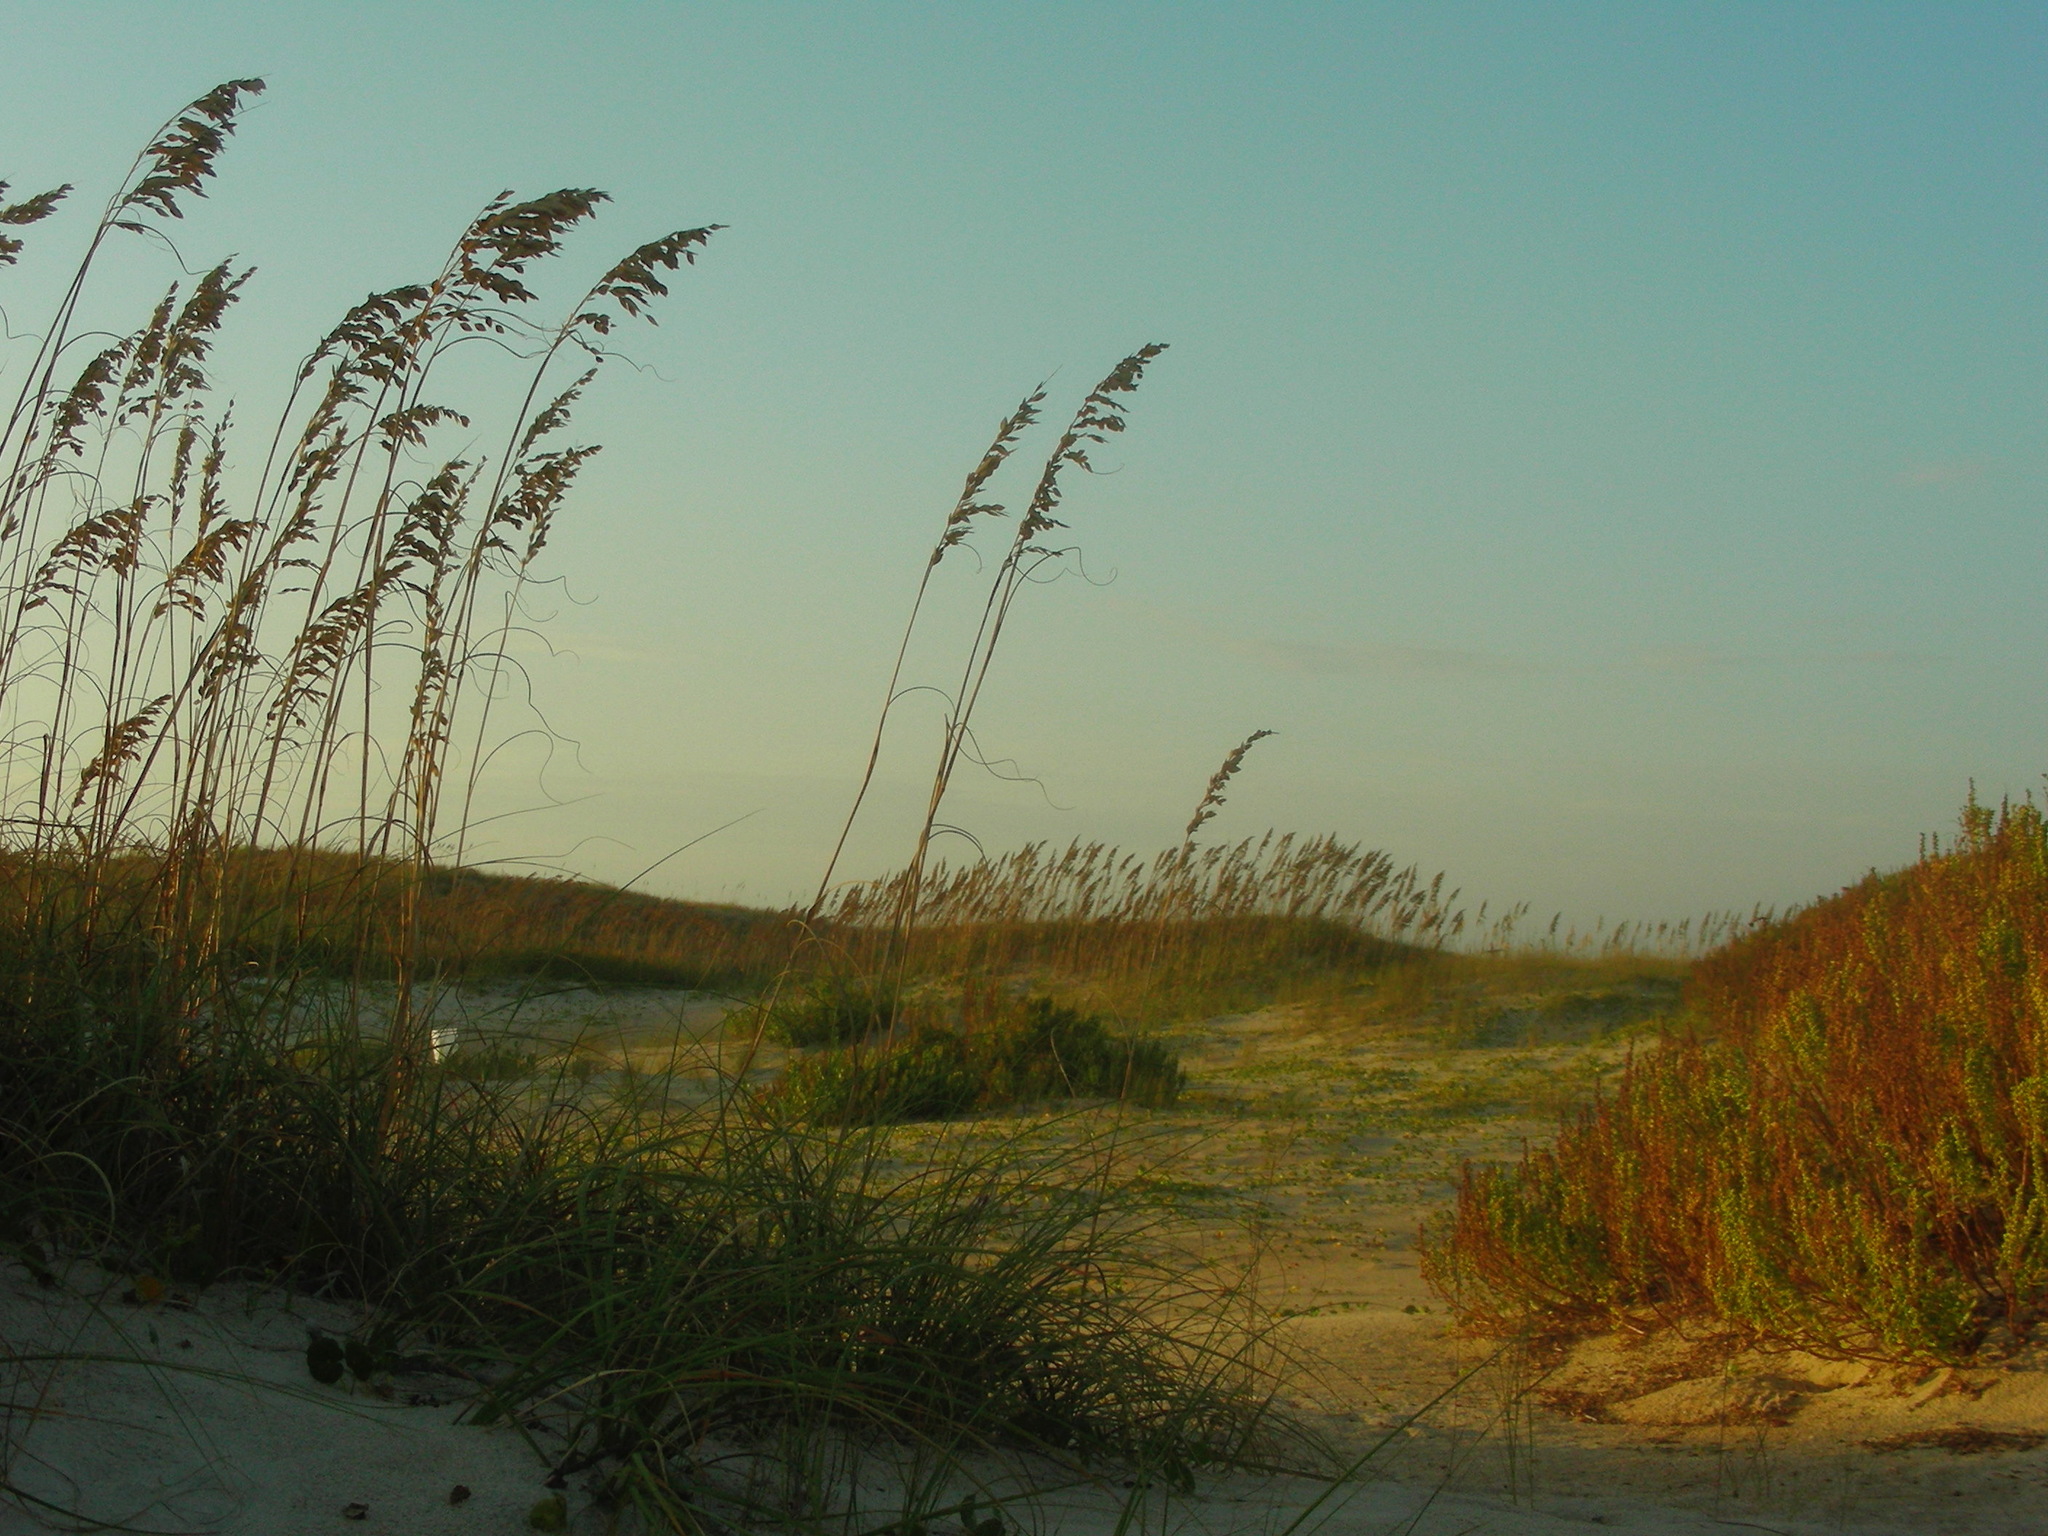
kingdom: Plantae
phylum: Tracheophyta
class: Liliopsida
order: Poales
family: Poaceae
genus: Uniola
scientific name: Uniola paniculata
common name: Seaside-oats
